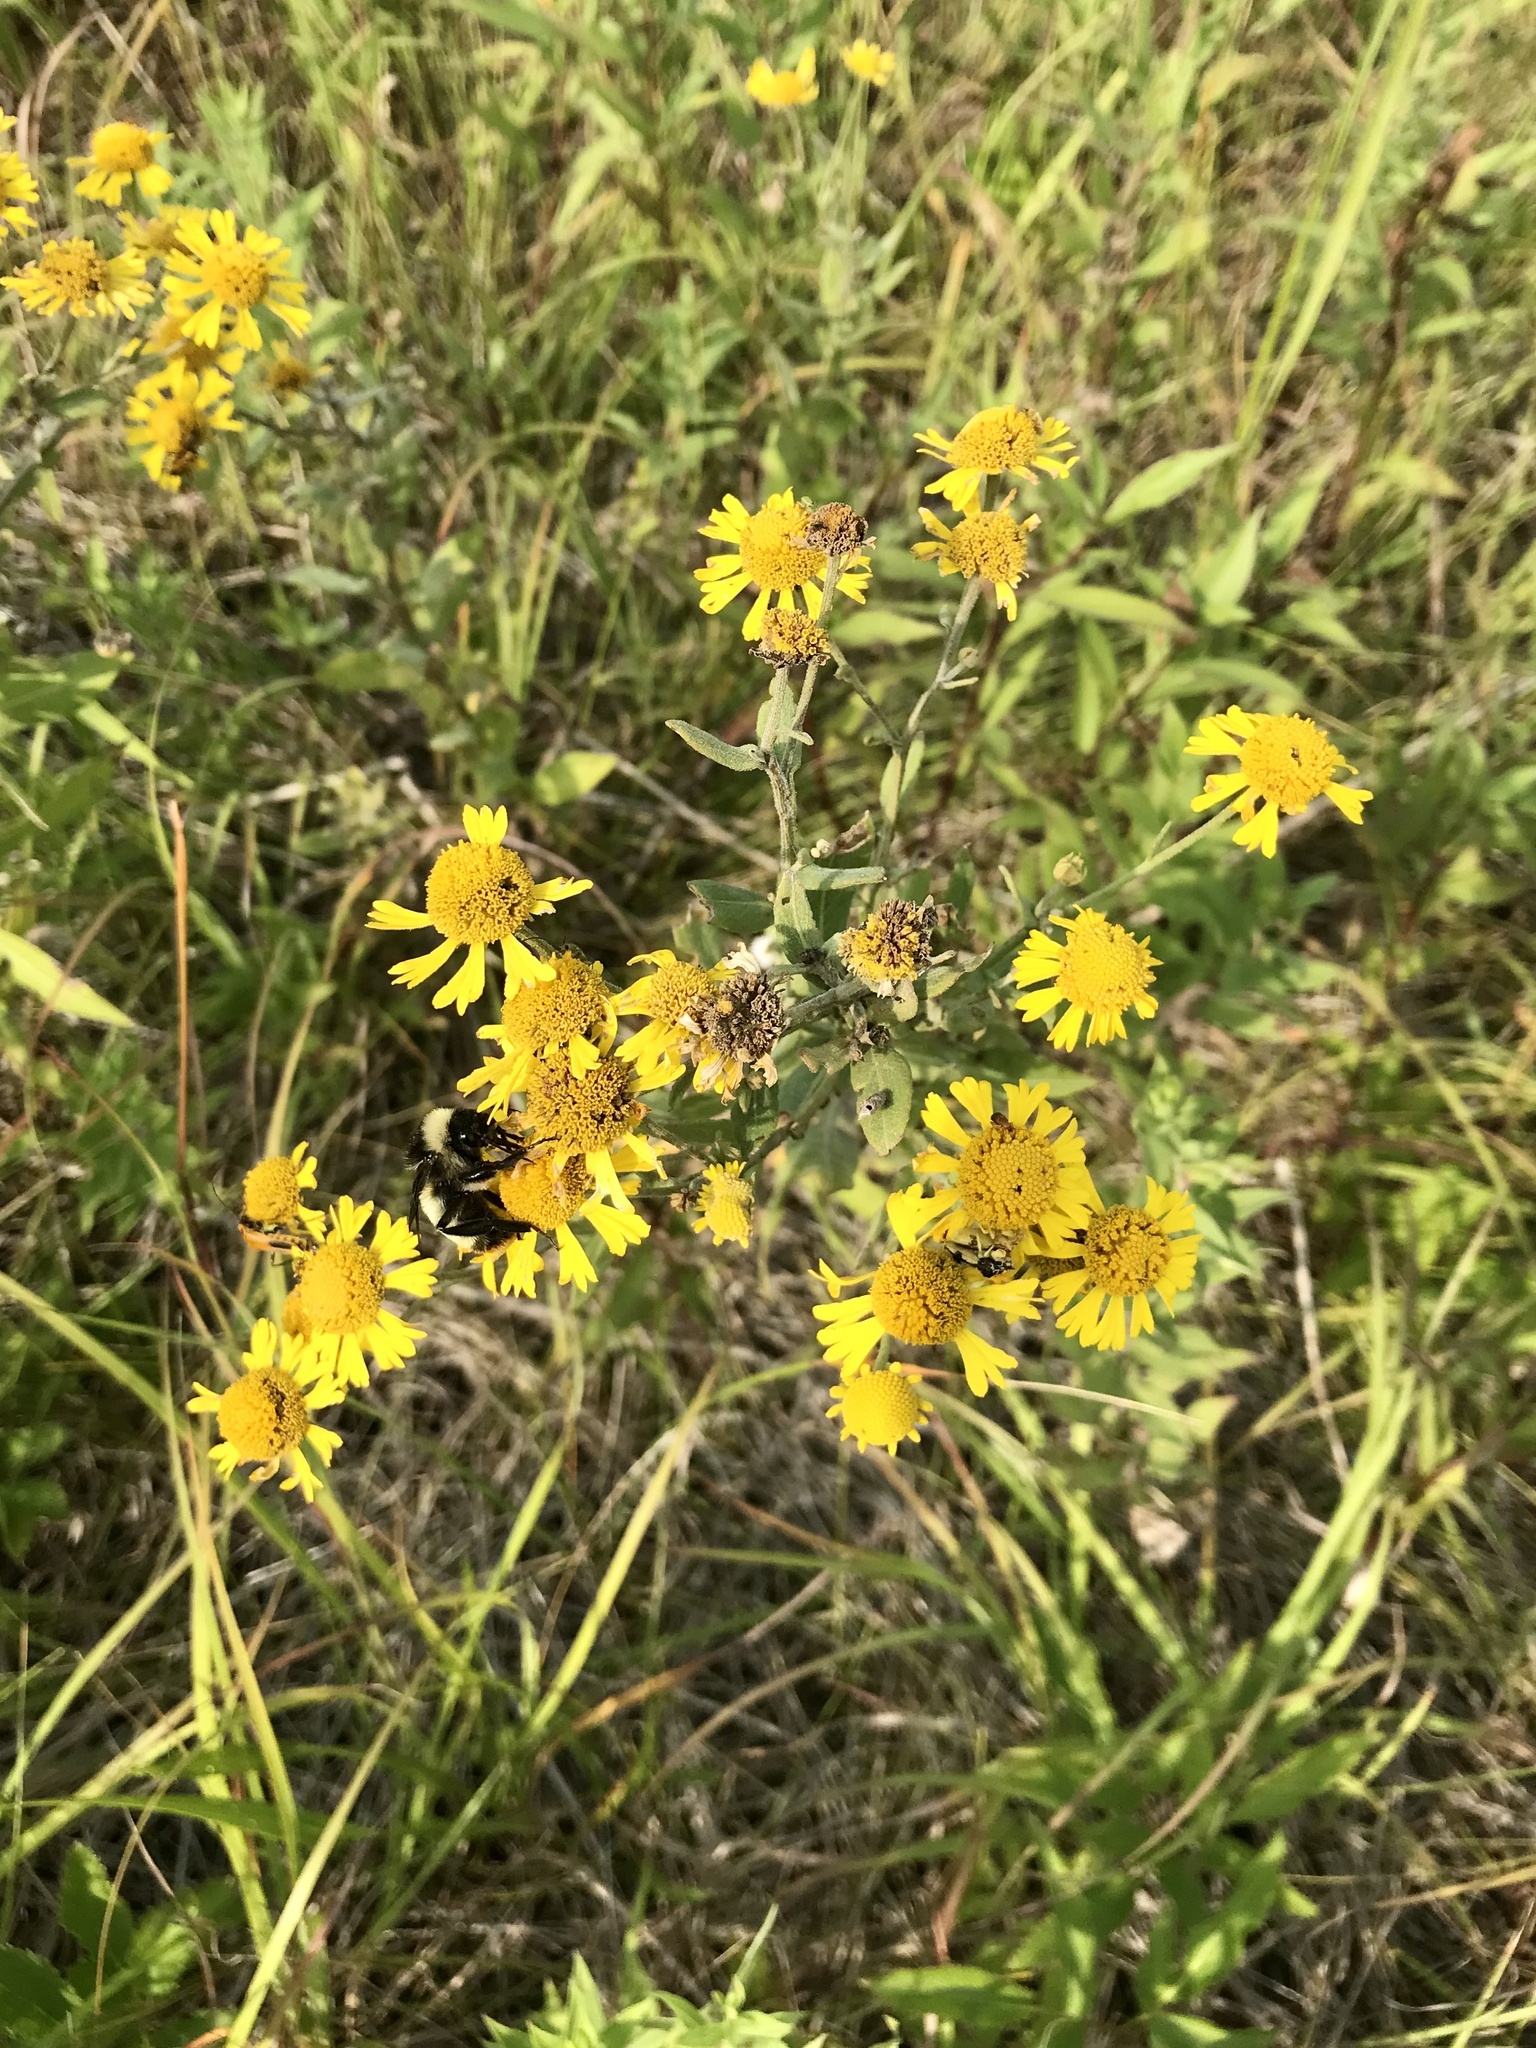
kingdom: Plantae
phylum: Tracheophyta
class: Magnoliopsida
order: Asterales
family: Asteraceae
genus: Helenium
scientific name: Helenium autumnale
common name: Sneezeweed
